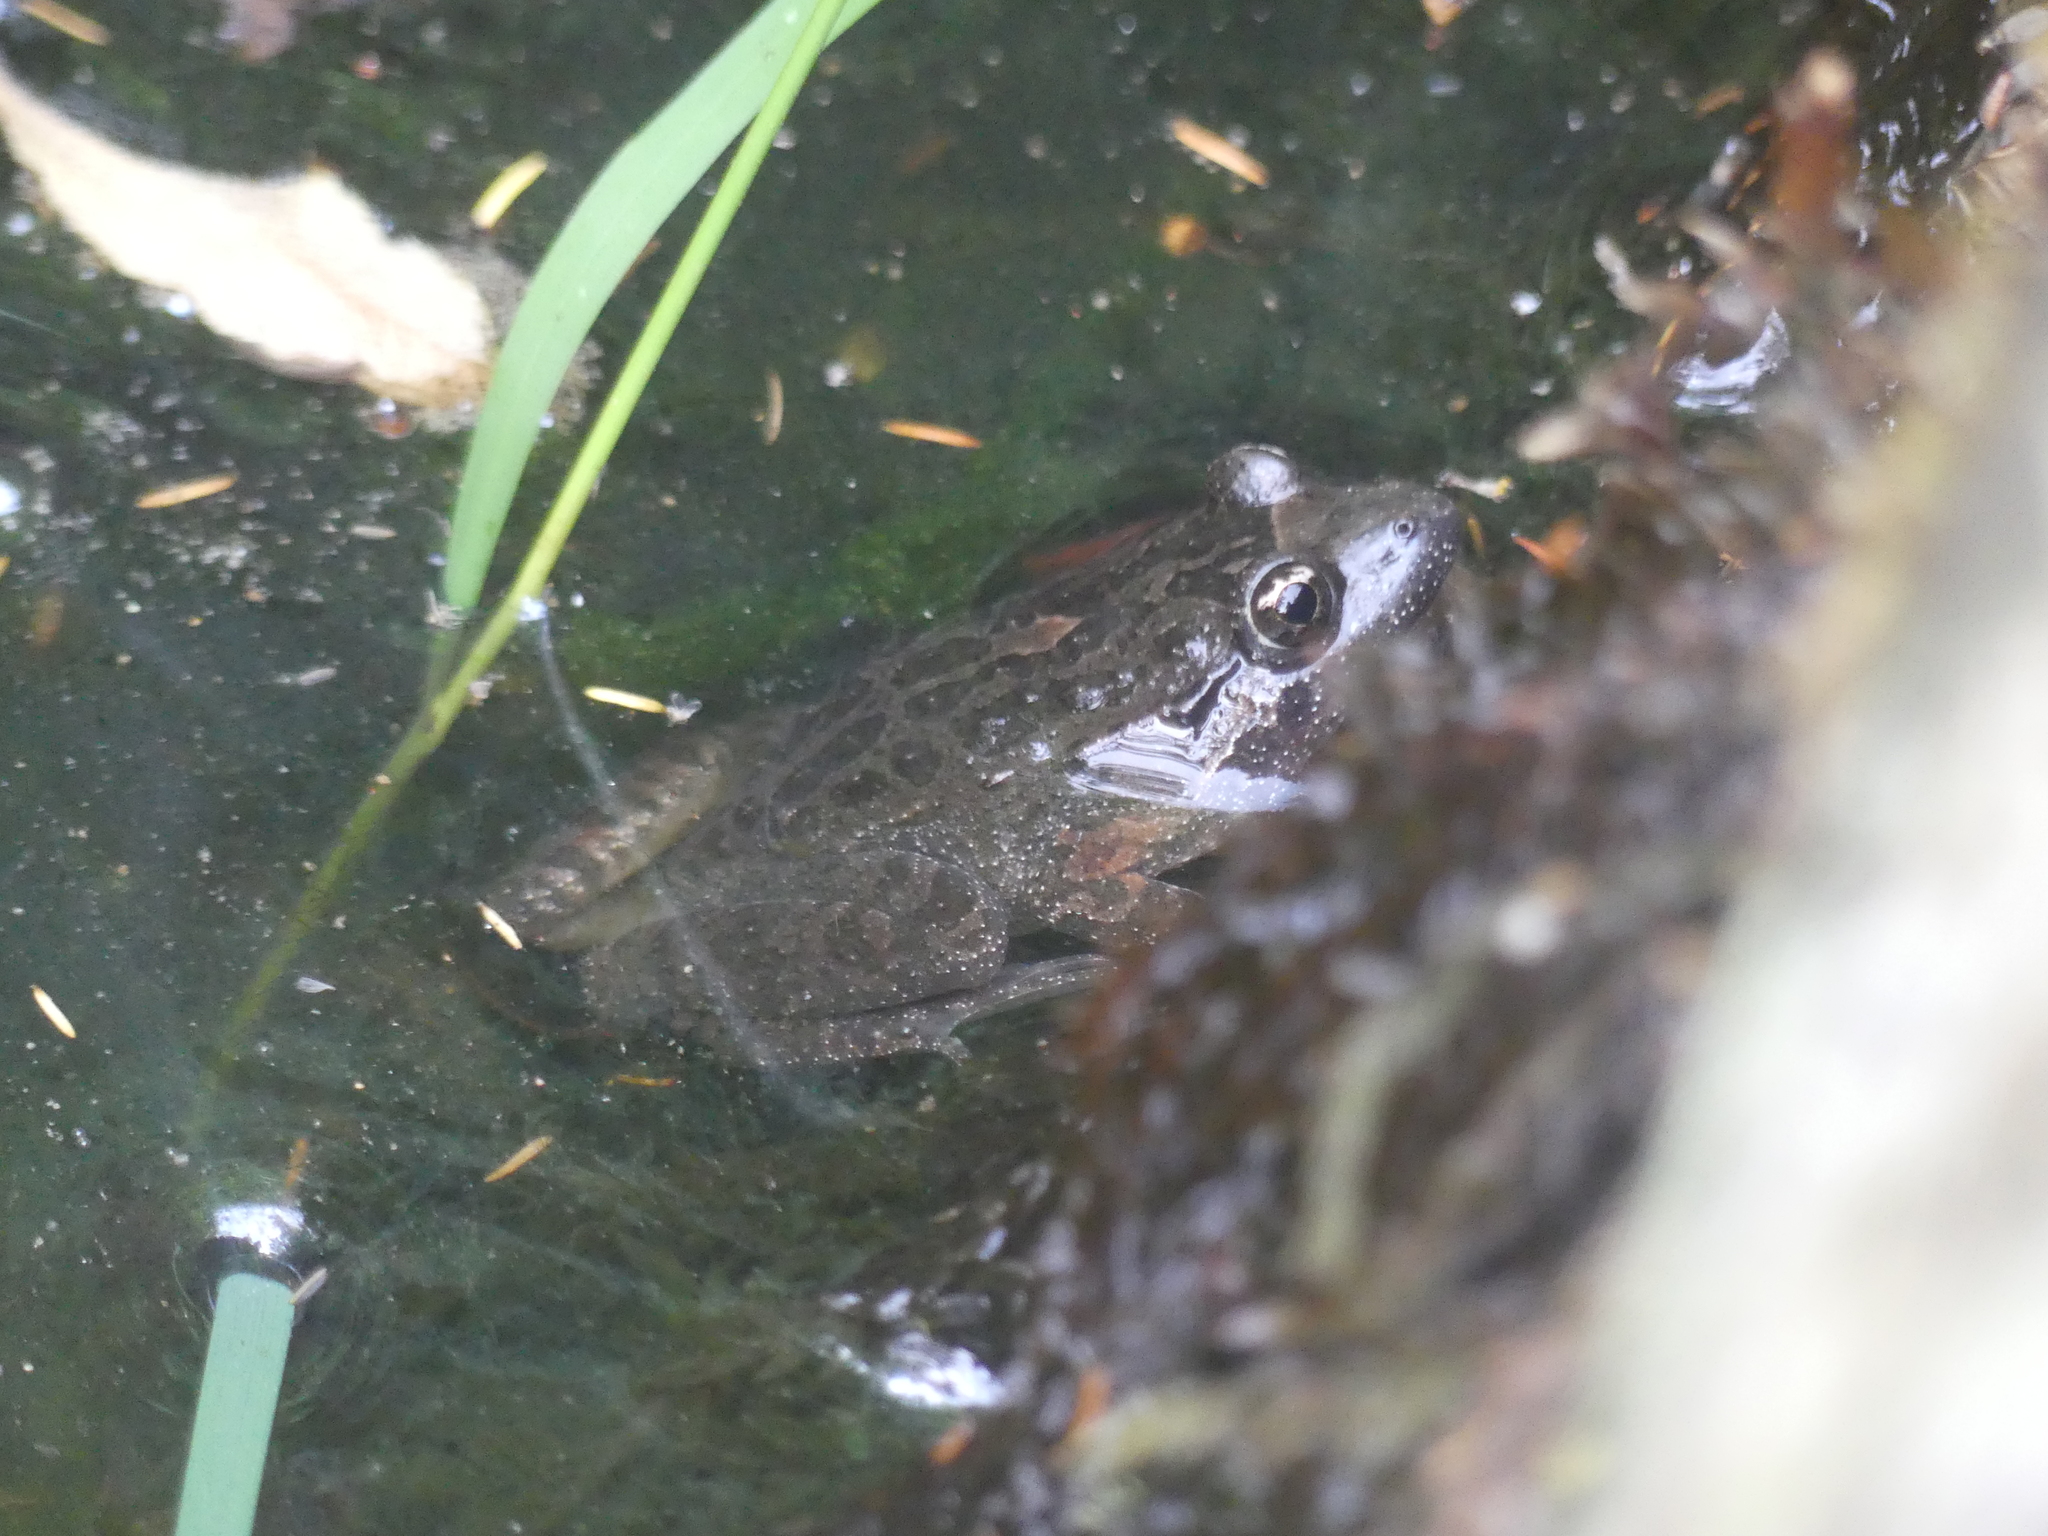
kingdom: Animalia
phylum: Chordata
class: Amphibia
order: Anura
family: Alytidae
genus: Discoglossus
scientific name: Discoglossus sardus
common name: Sardinia painted frog
